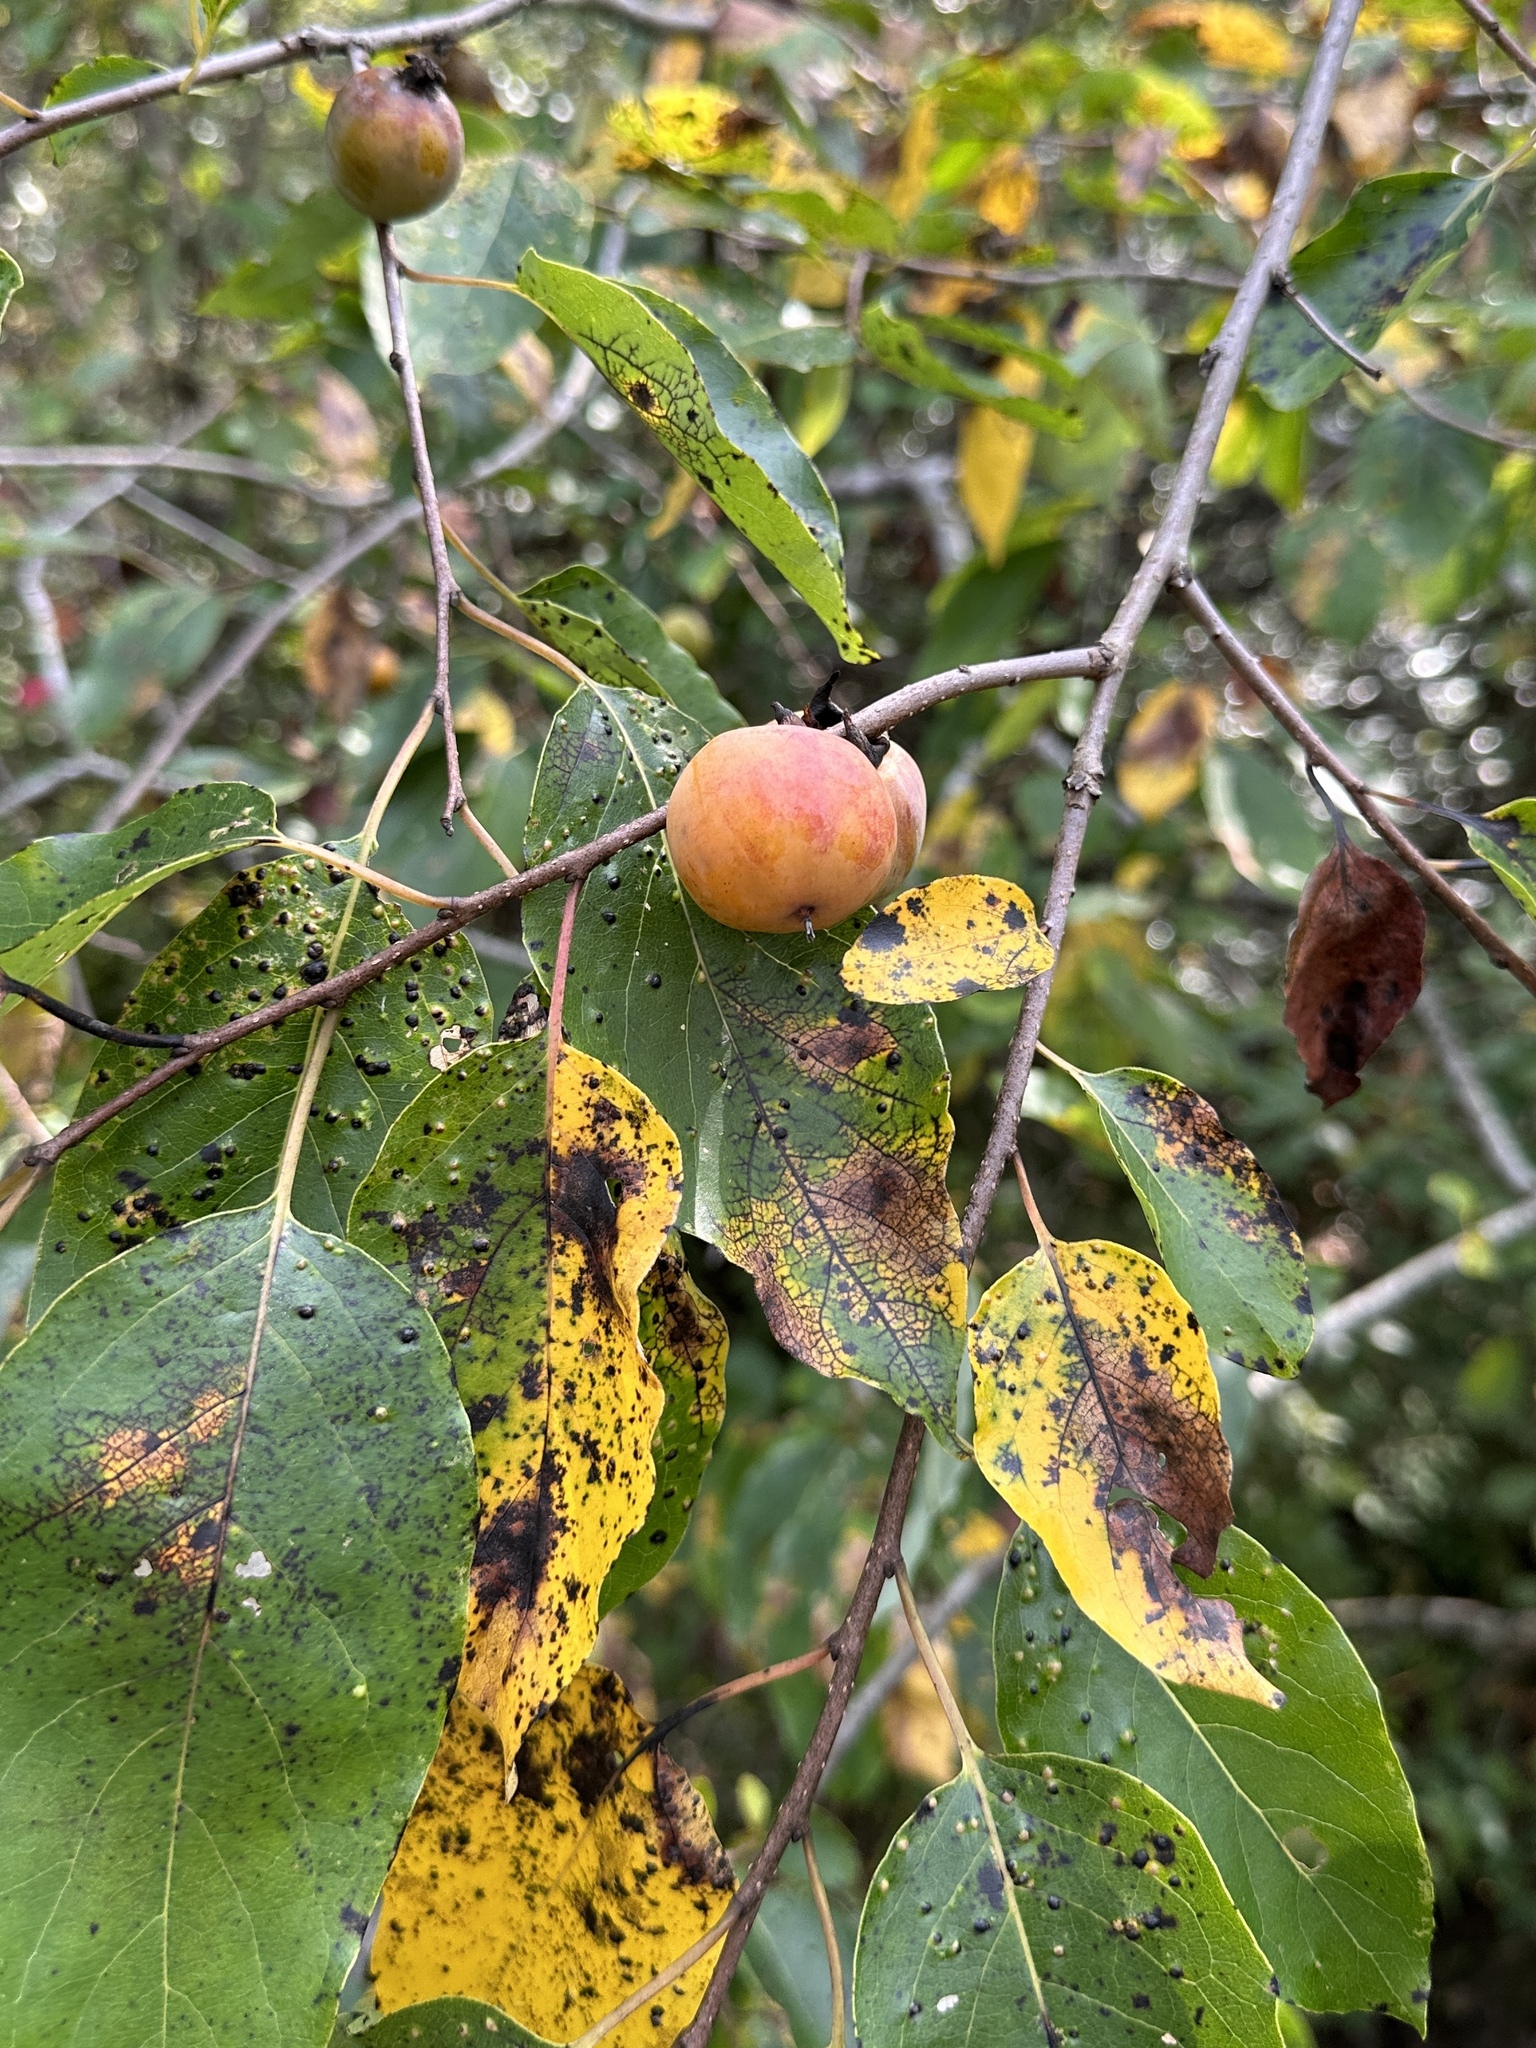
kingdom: Plantae
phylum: Tracheophyta
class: Magnoliopsida
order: Ericales
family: Ebenaceae
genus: Diospyros
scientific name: Diospyros virginiana
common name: Persimmon
